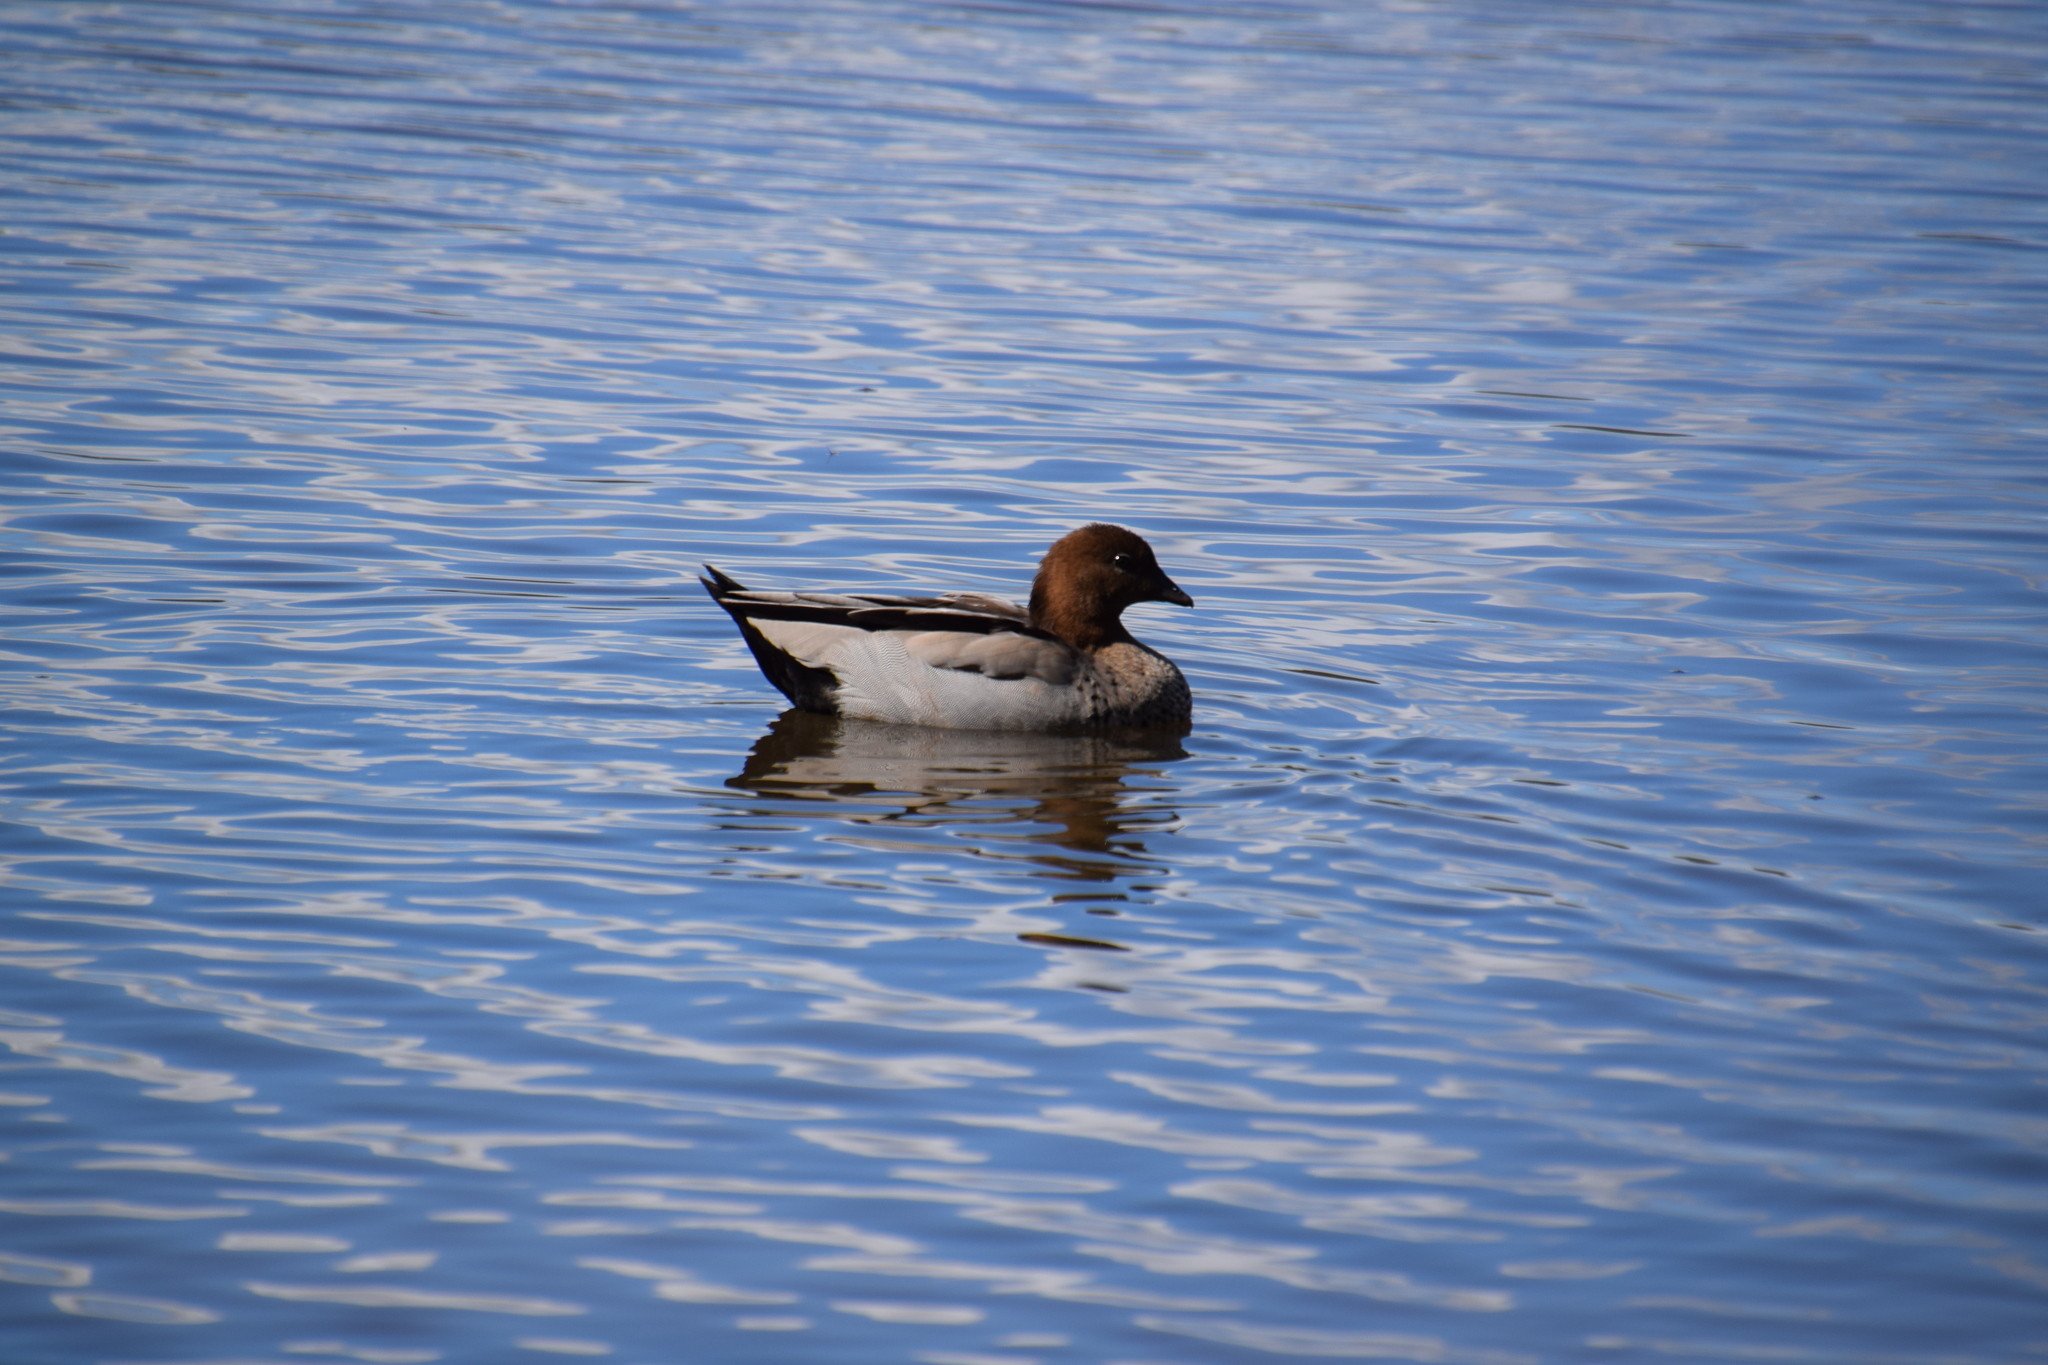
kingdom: Animalia
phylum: Chordata
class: Aves
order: Anseriformes
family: Anatidae
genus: Chenonetta
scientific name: Chenonetta jubata
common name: Maned duck
